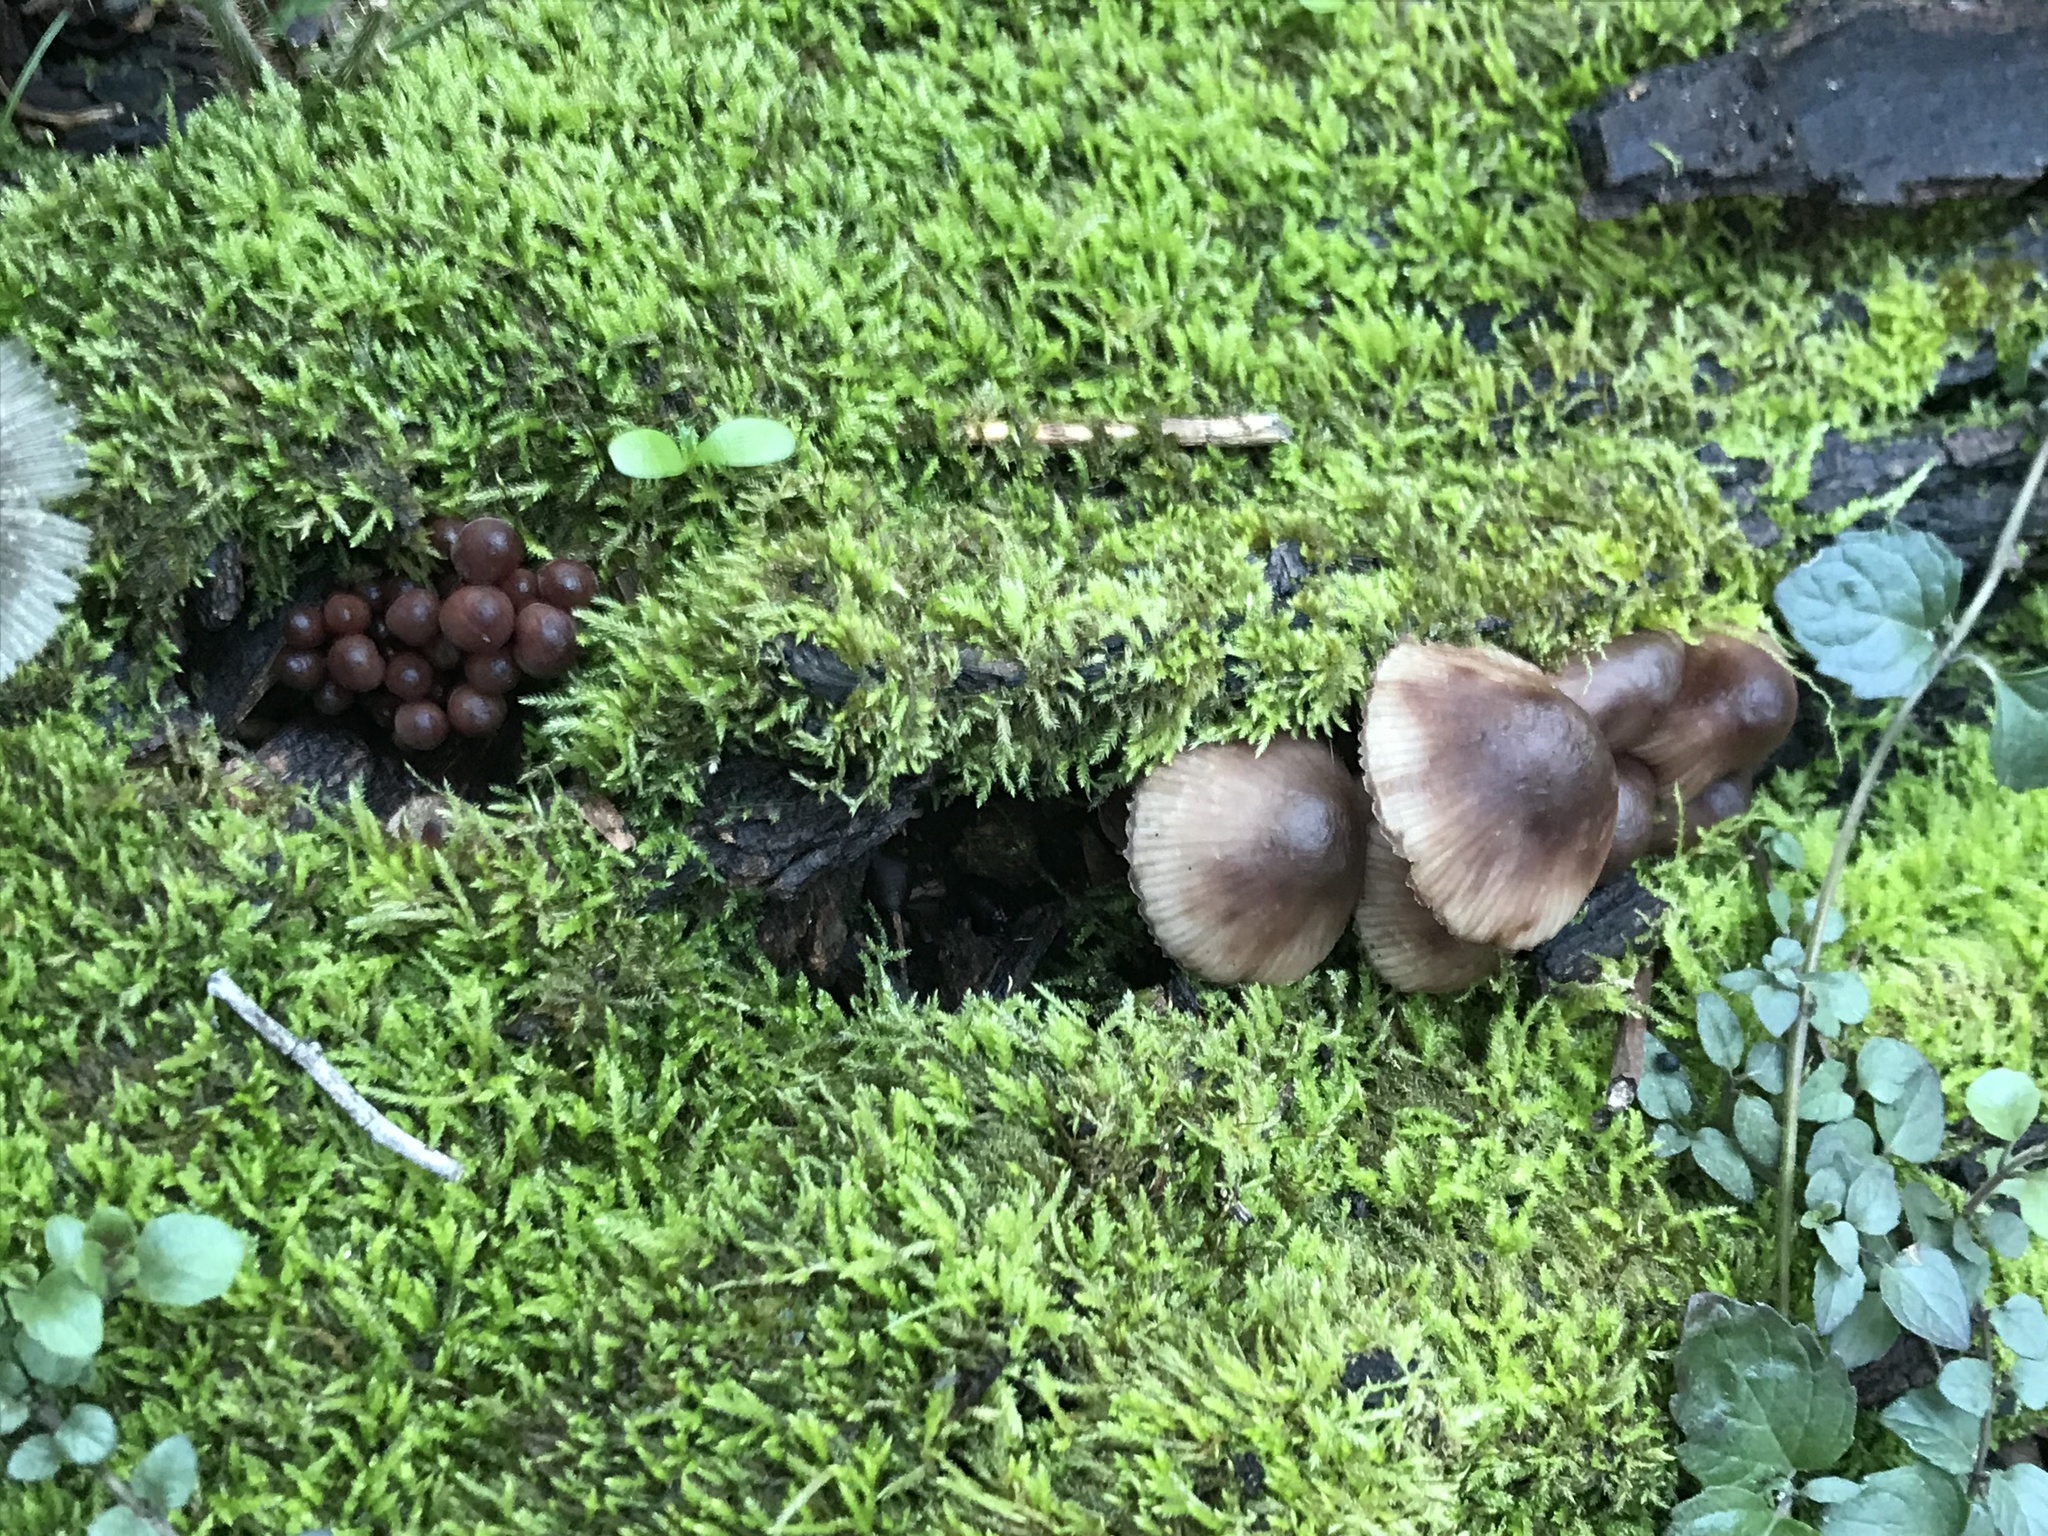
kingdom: Fungi
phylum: Basidiomycota
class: Agaricomycetes
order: Agaricales
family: Mycenaceae
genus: Mycena
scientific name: Mycena haematopus
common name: Burgundydrop bonnet
